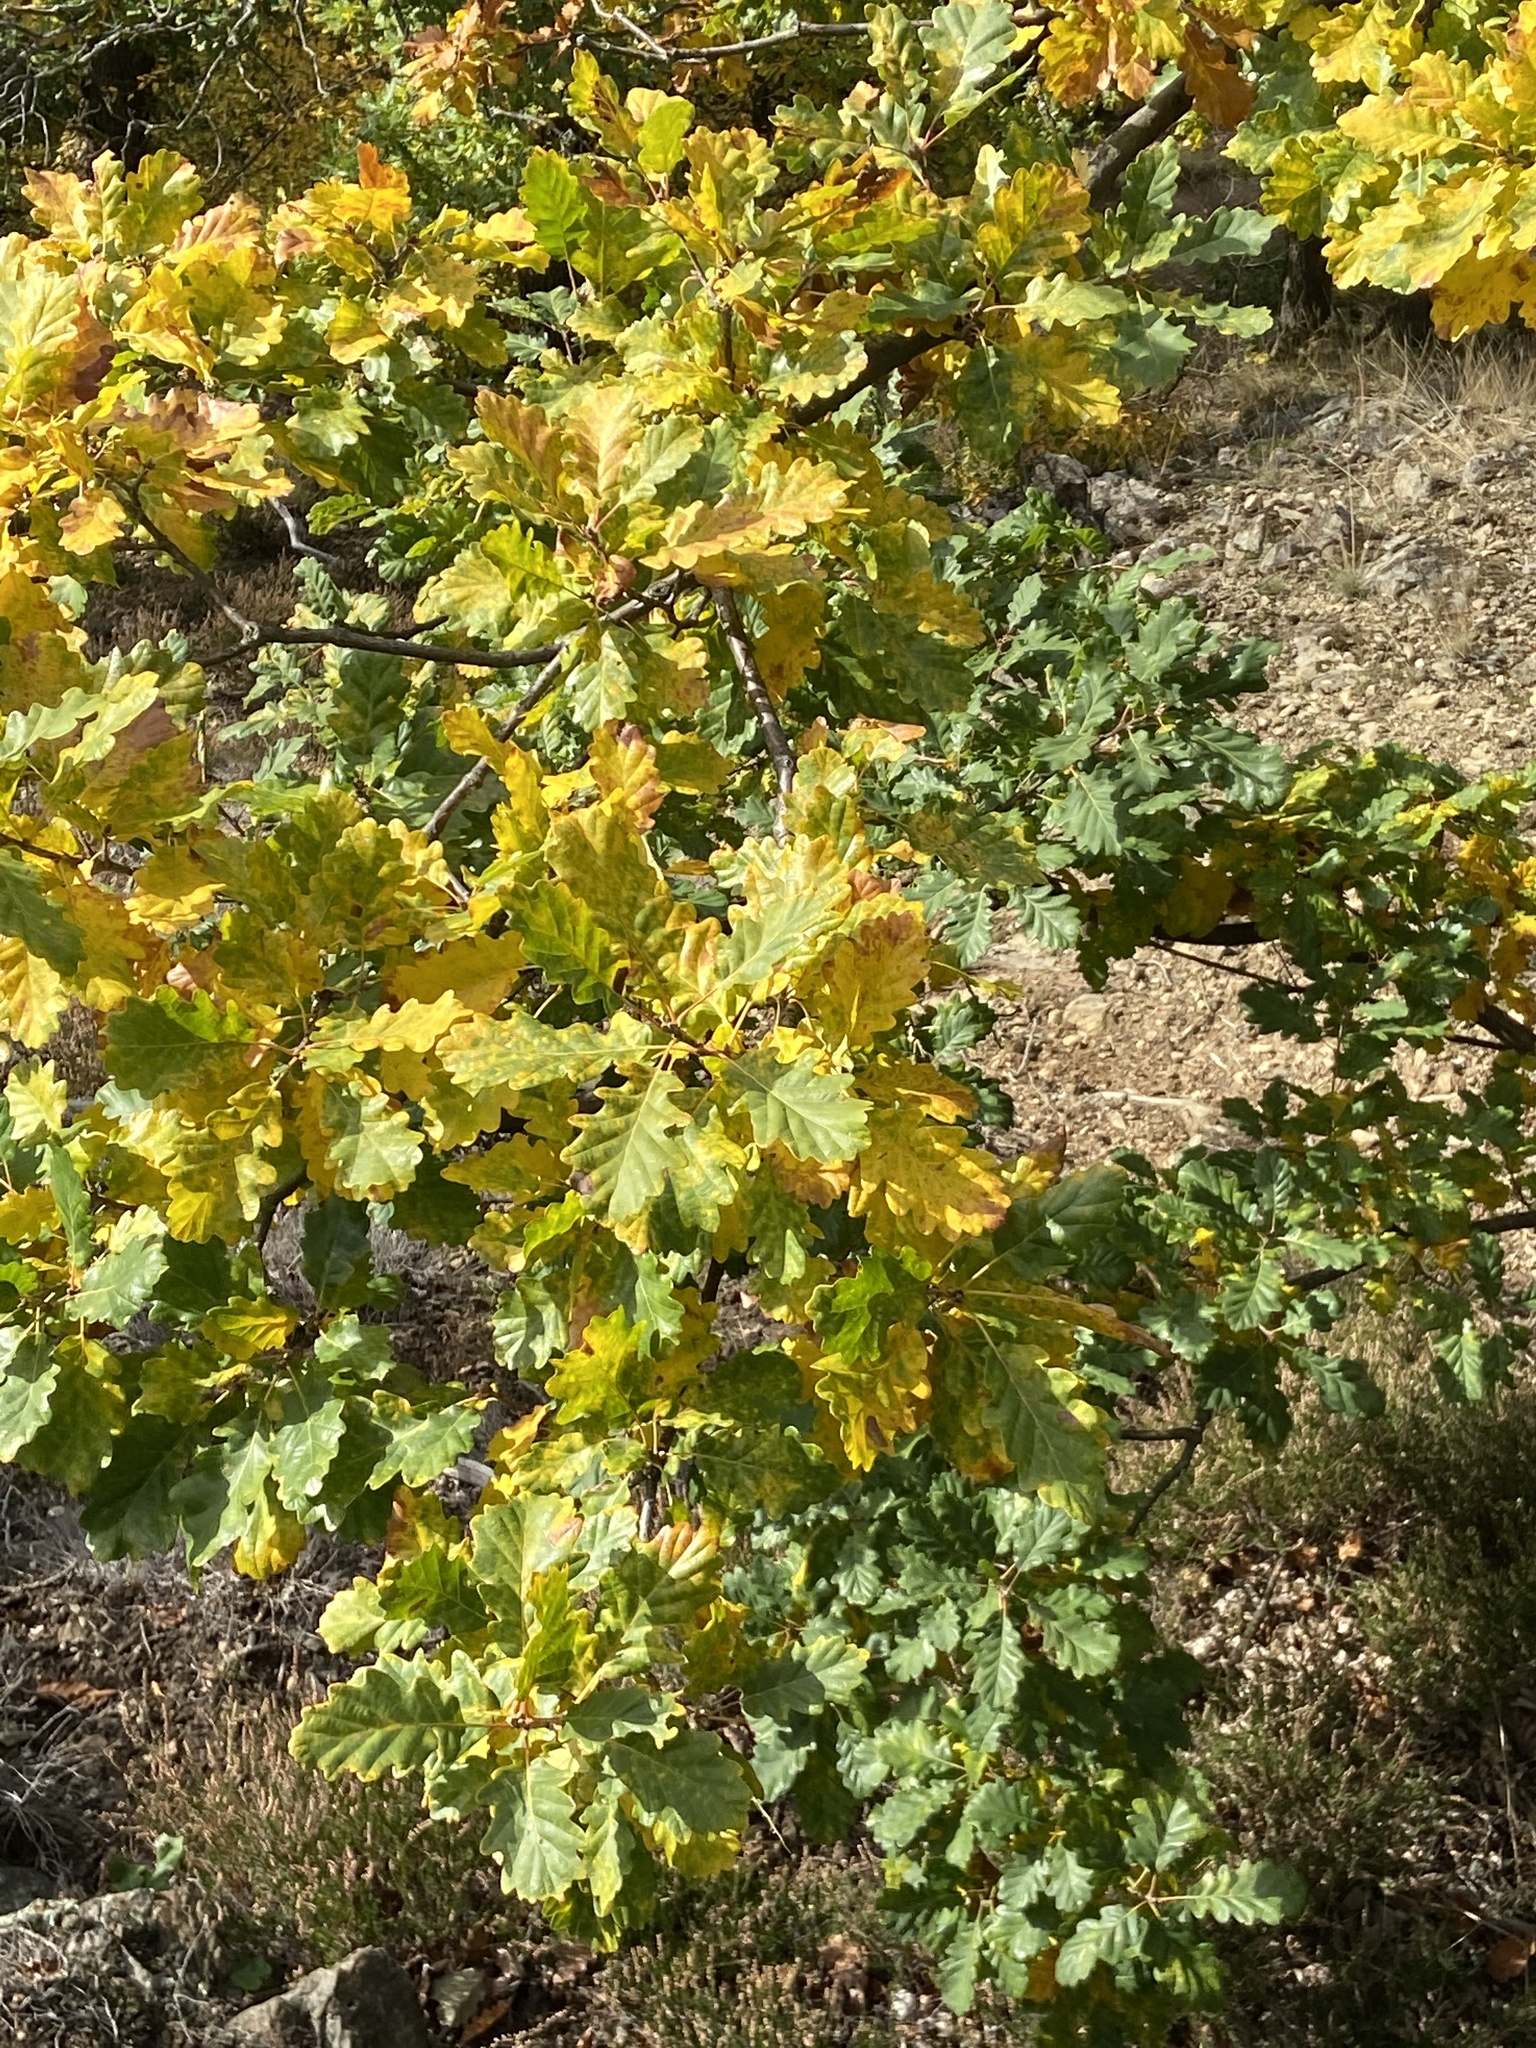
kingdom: Plantae
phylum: Tracheophyta
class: Magnoliopsida
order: Fagales
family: Fagaceae
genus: Quercus
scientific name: Quercus petraea
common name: Sessile oak
